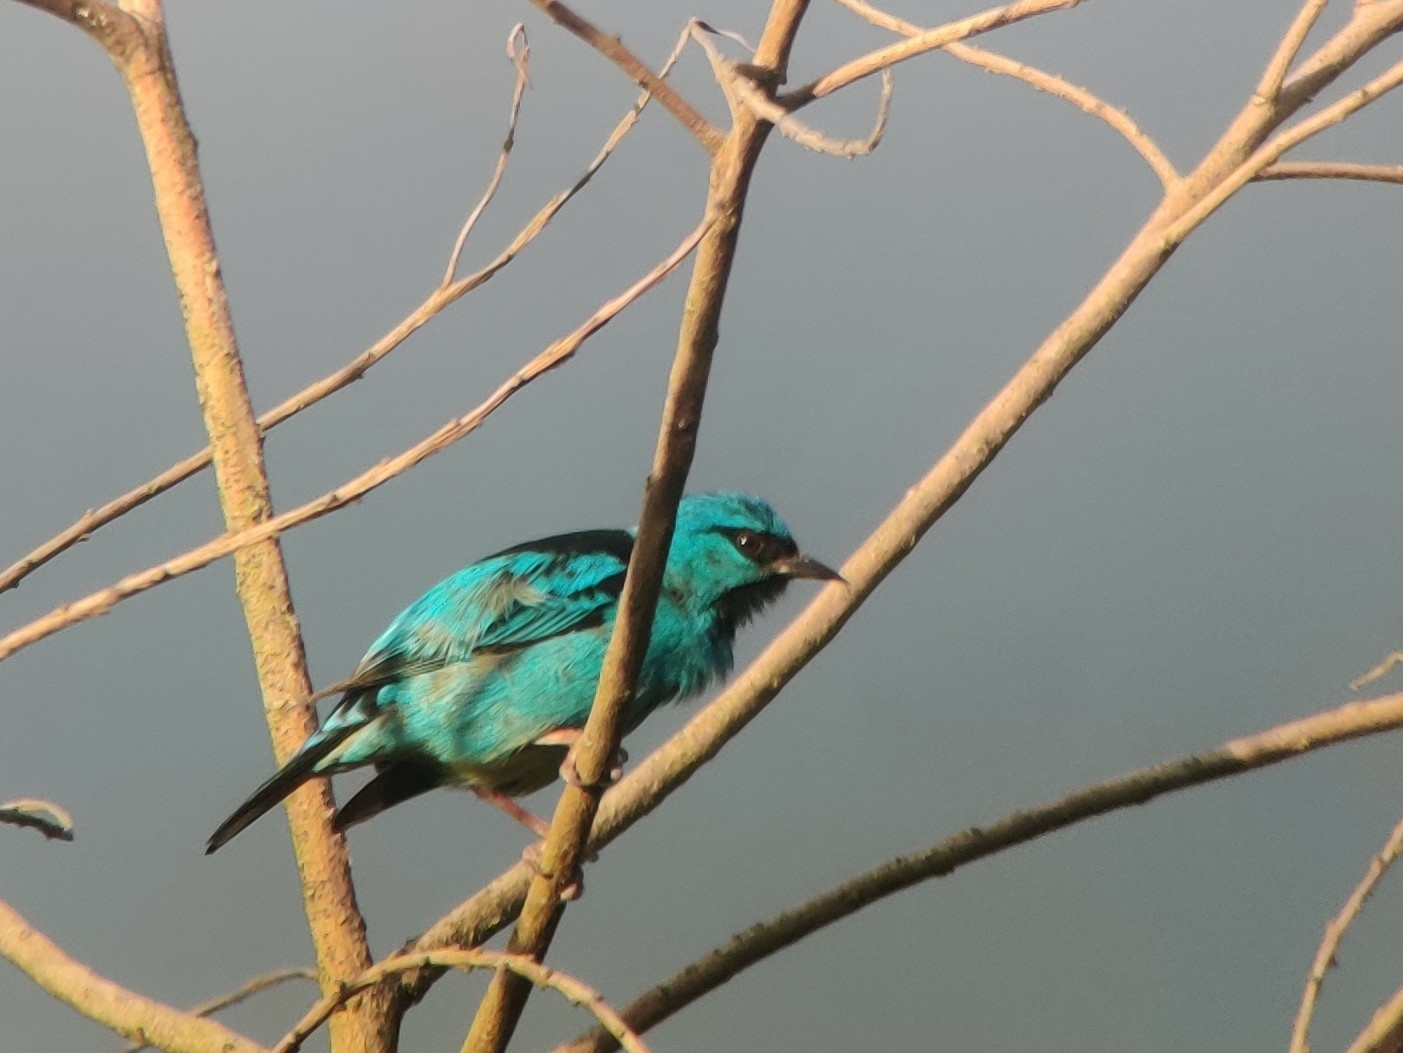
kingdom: Animalia
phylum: Chordata
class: Aves
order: Passeriformes
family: Thraupidae
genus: Dacnis
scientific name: Dacnis cayana
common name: Blue dacnis
